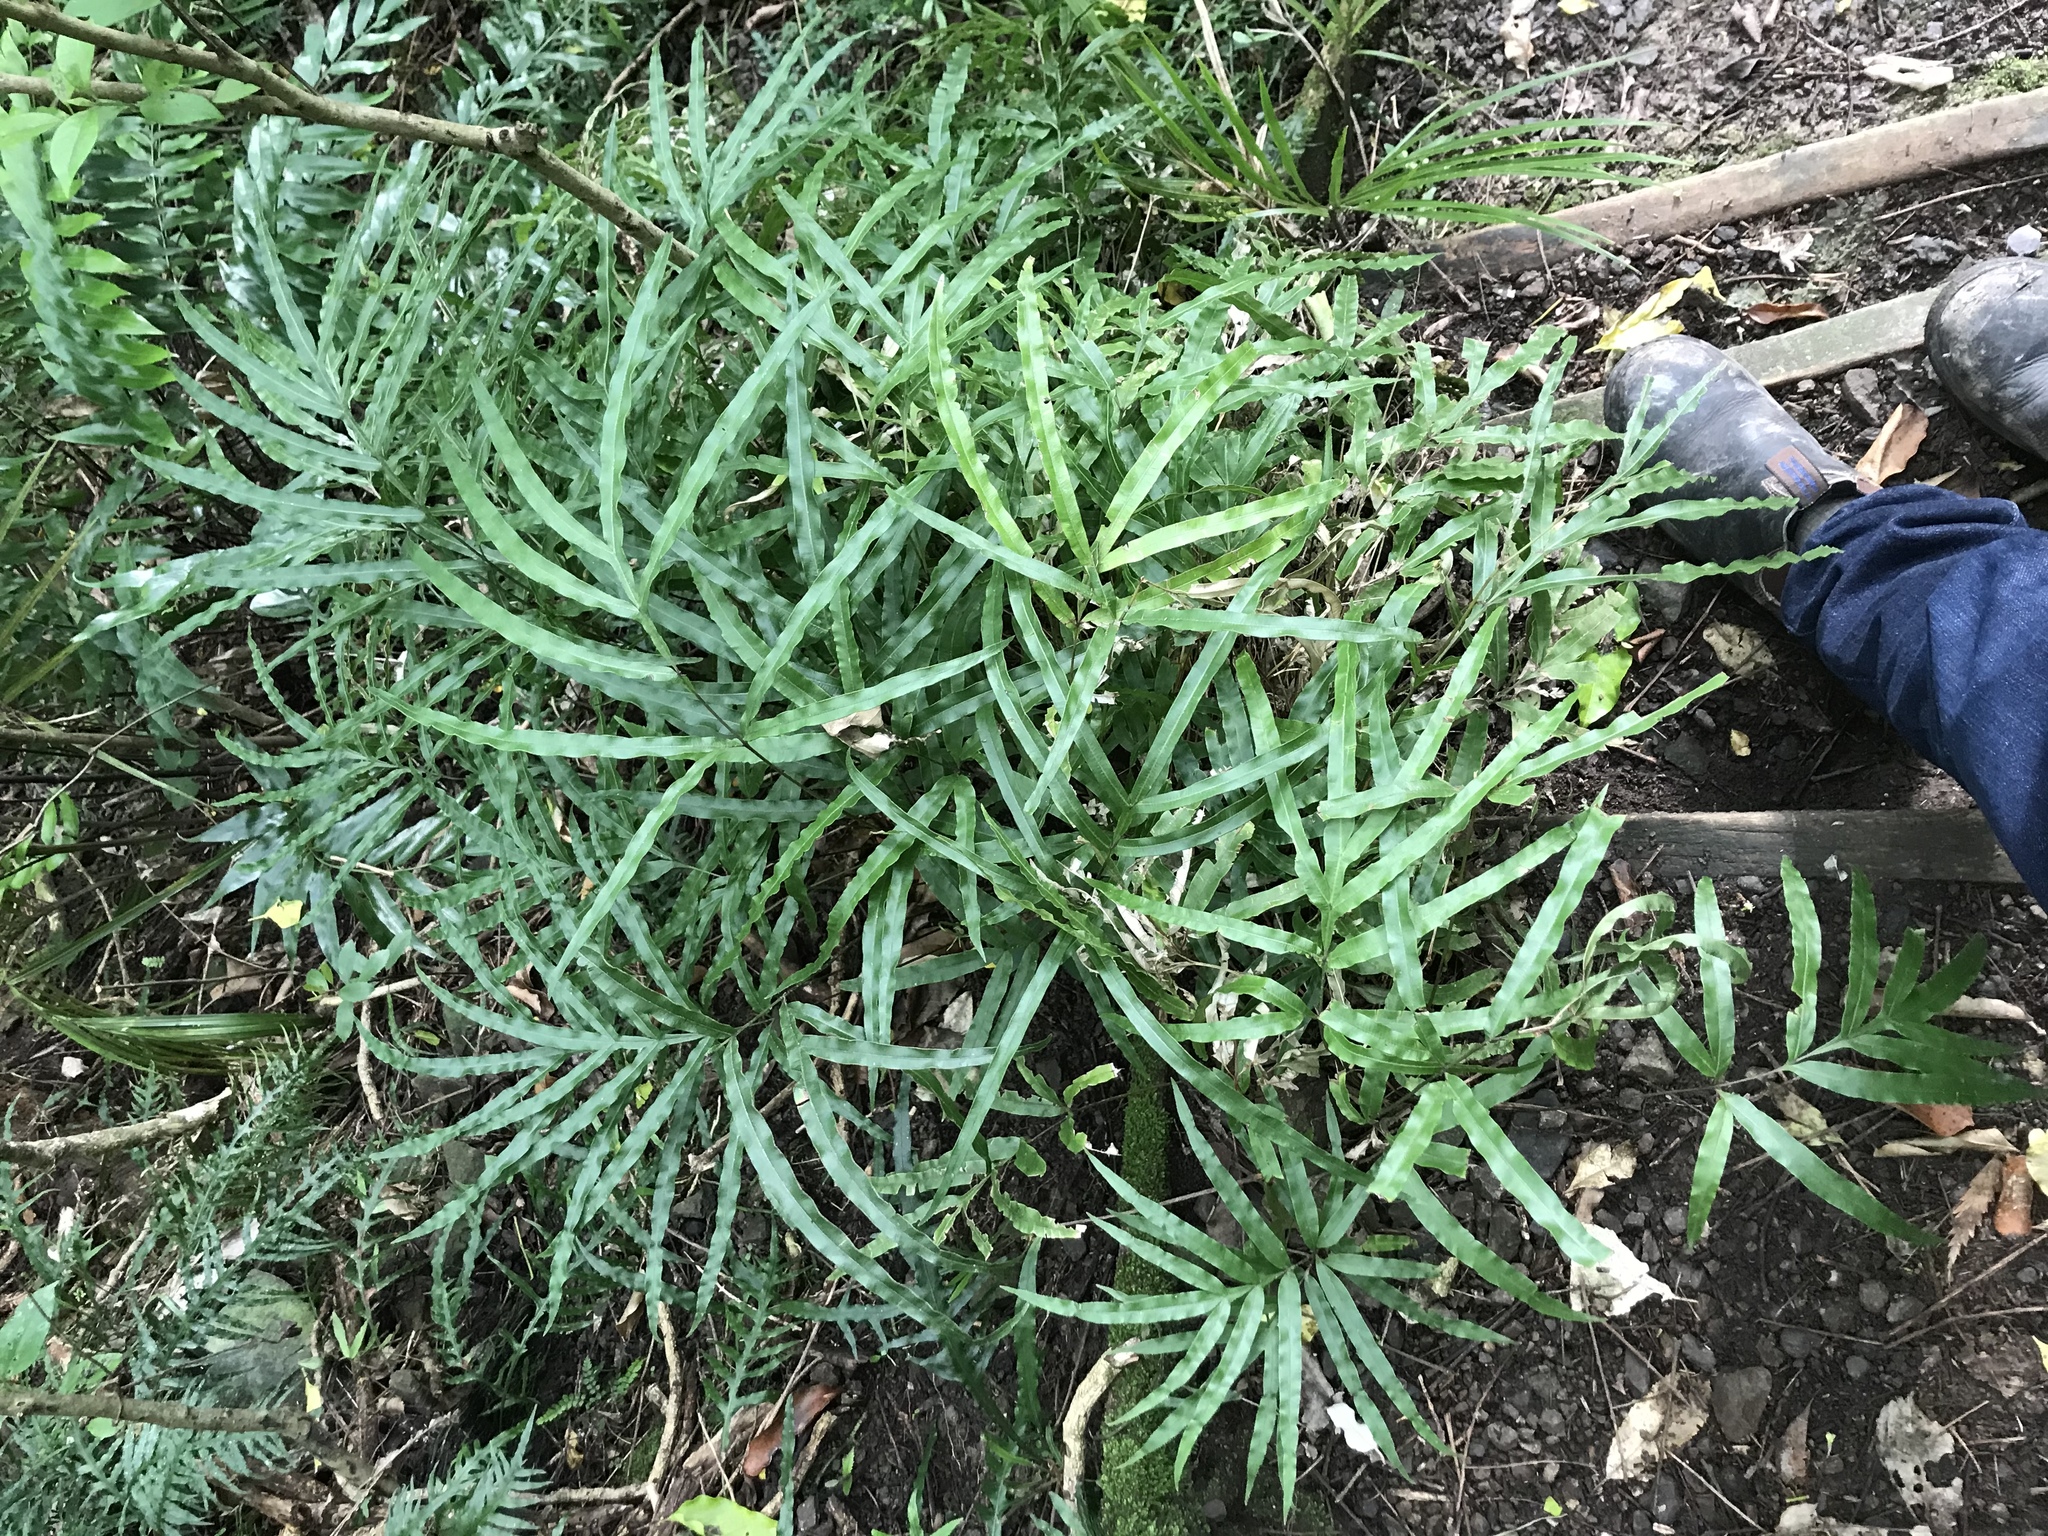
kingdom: Plantae
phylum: Tracheophyta
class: Polypodiopsida
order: Polypodiales
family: Pteridaceae
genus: Pteris
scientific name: Pteris cretica
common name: Ribbon fern
